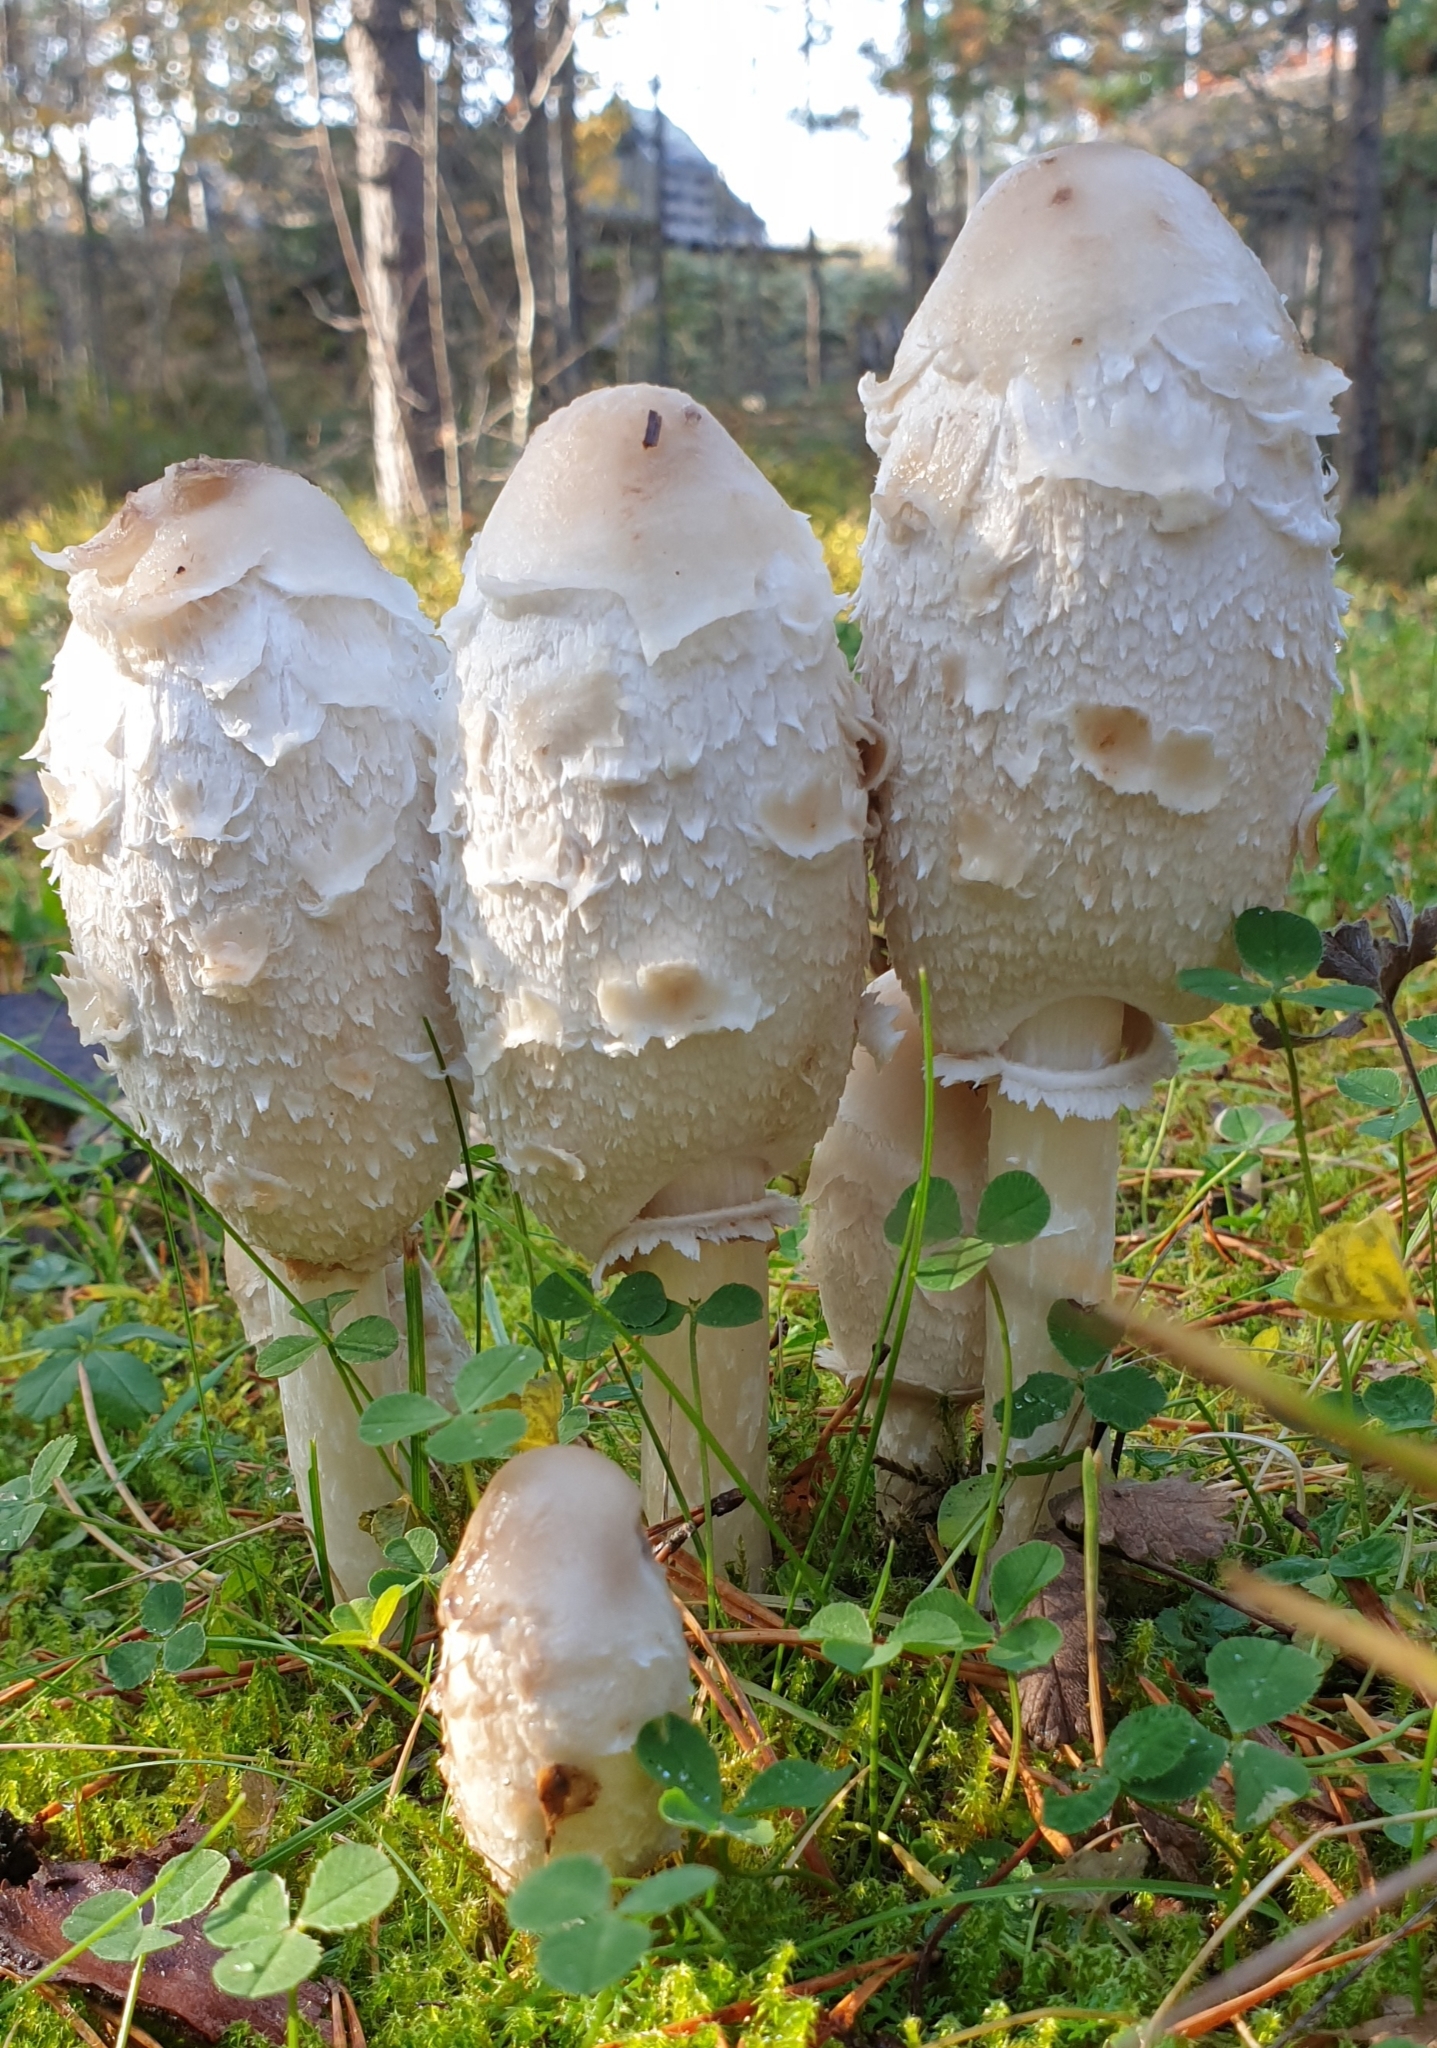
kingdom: Fungi
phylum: Basidiomycota
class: Agaricomycetes
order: Agaricales
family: Agaricaceae
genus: Coprinus
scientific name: Coprinus comatus
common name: Lawyer's wig
